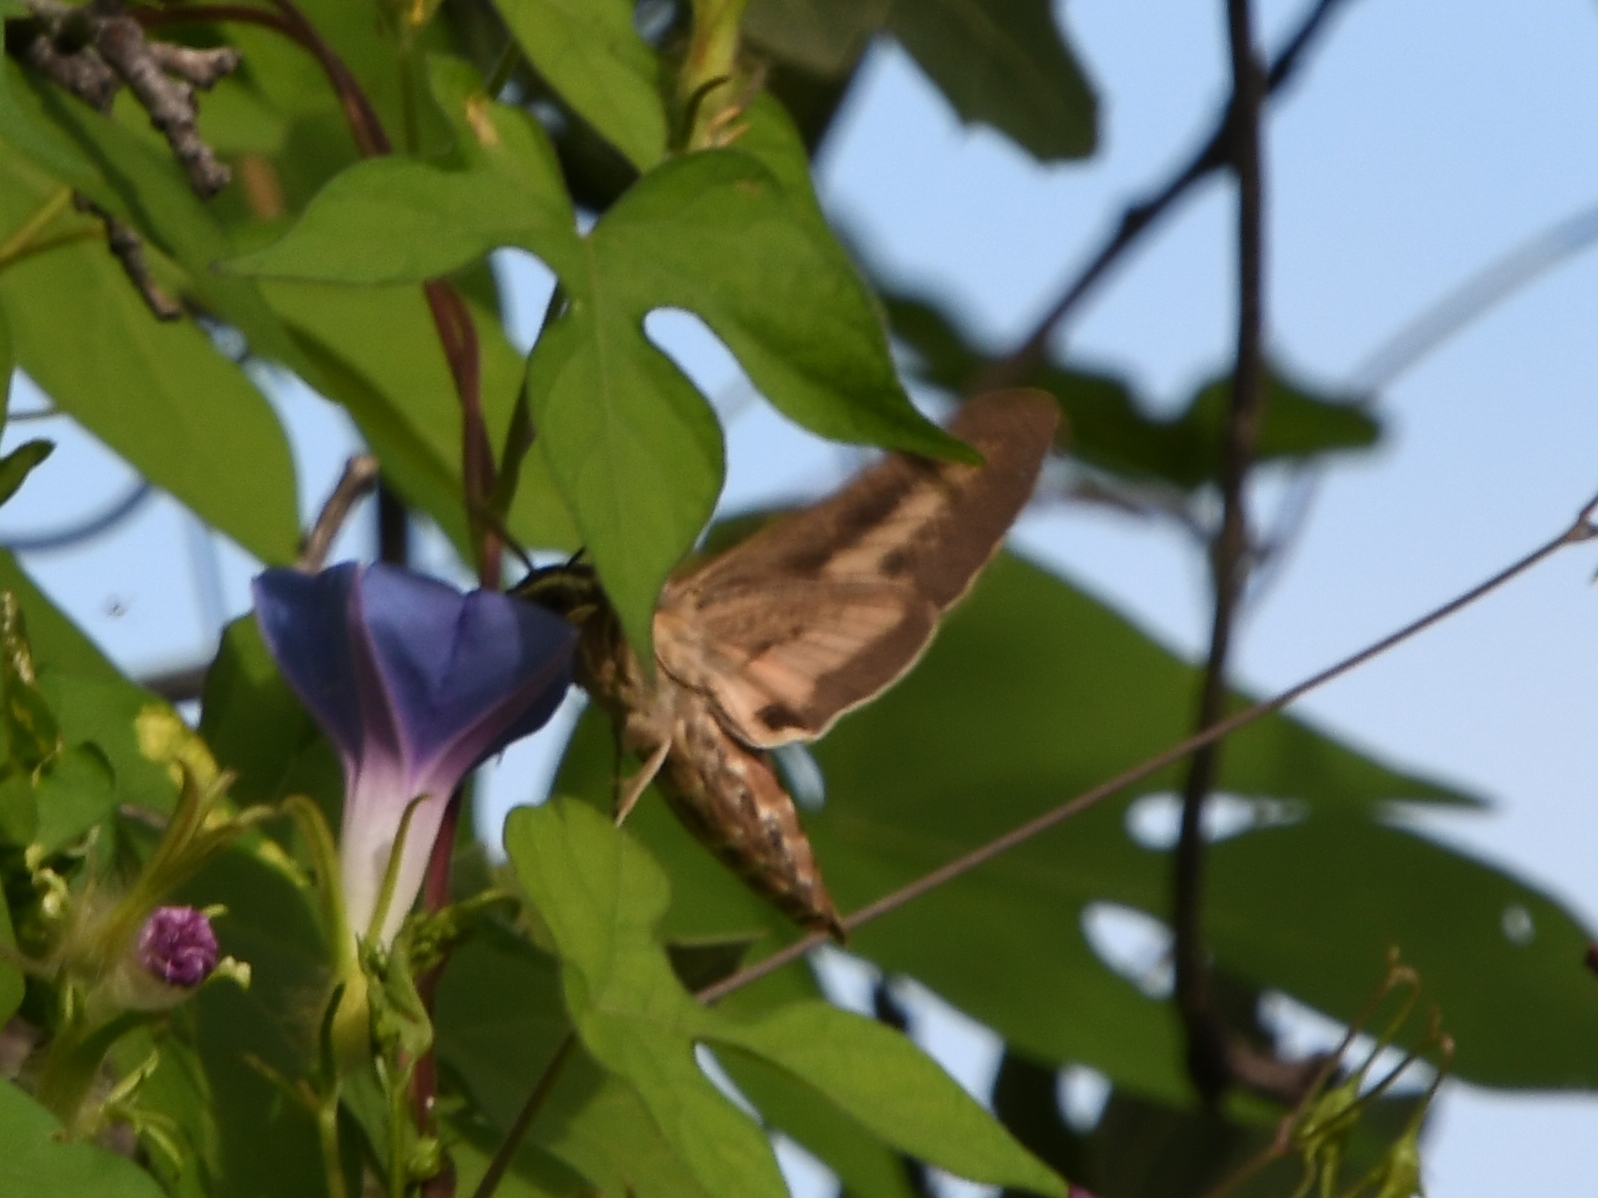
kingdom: Animalia
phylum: Arthropoda
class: Insecta
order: Lepidoptera
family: Sphingidae
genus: Hyles
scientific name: Hyles lineata
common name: White-lined sphinx
